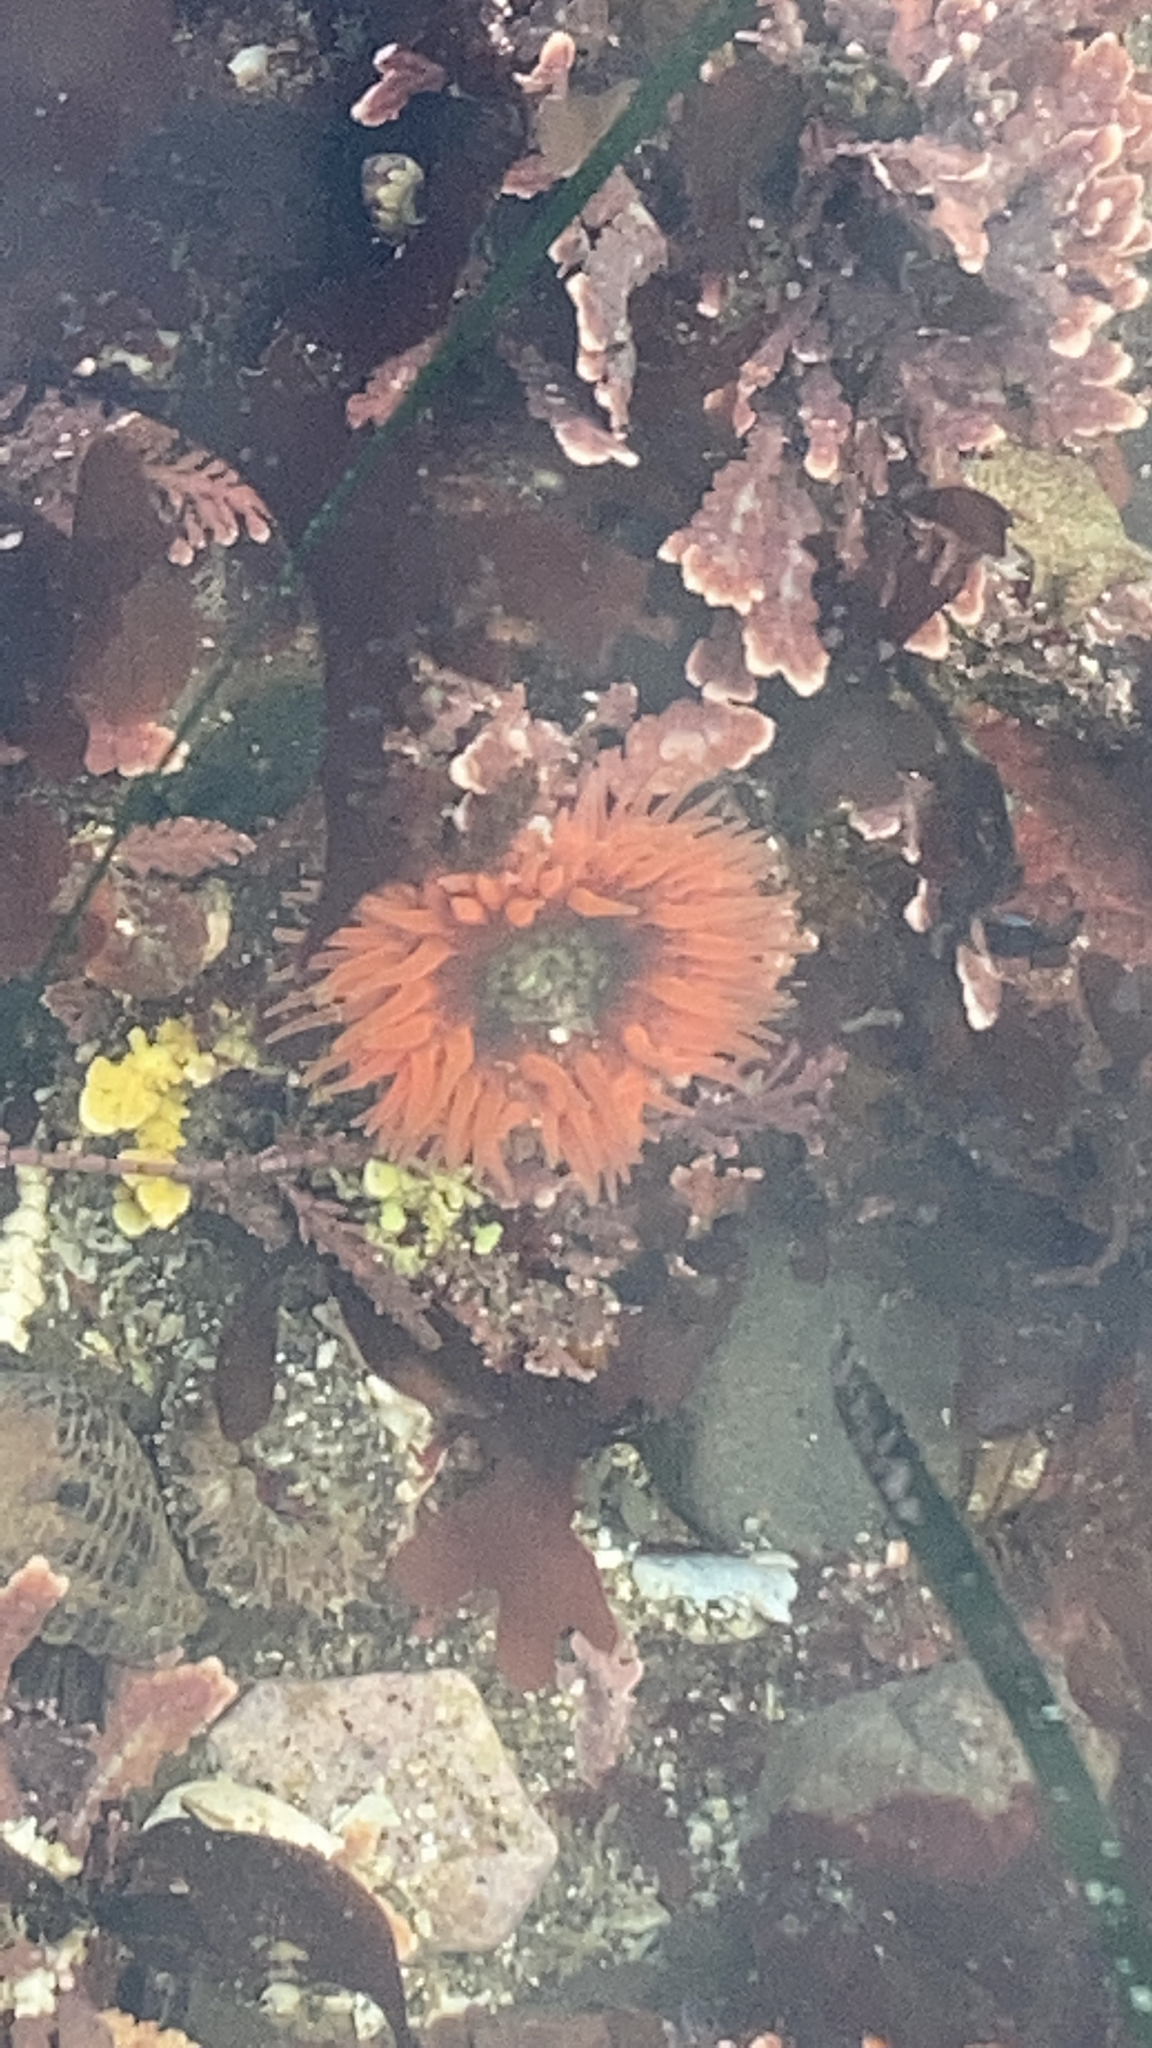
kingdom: Animalia
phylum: Cnidaria
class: Anthozoa
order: Actiniaria
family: Actiniidae
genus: Anthopleura
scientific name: Anthopleura artemisia
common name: Buried sea anemone
